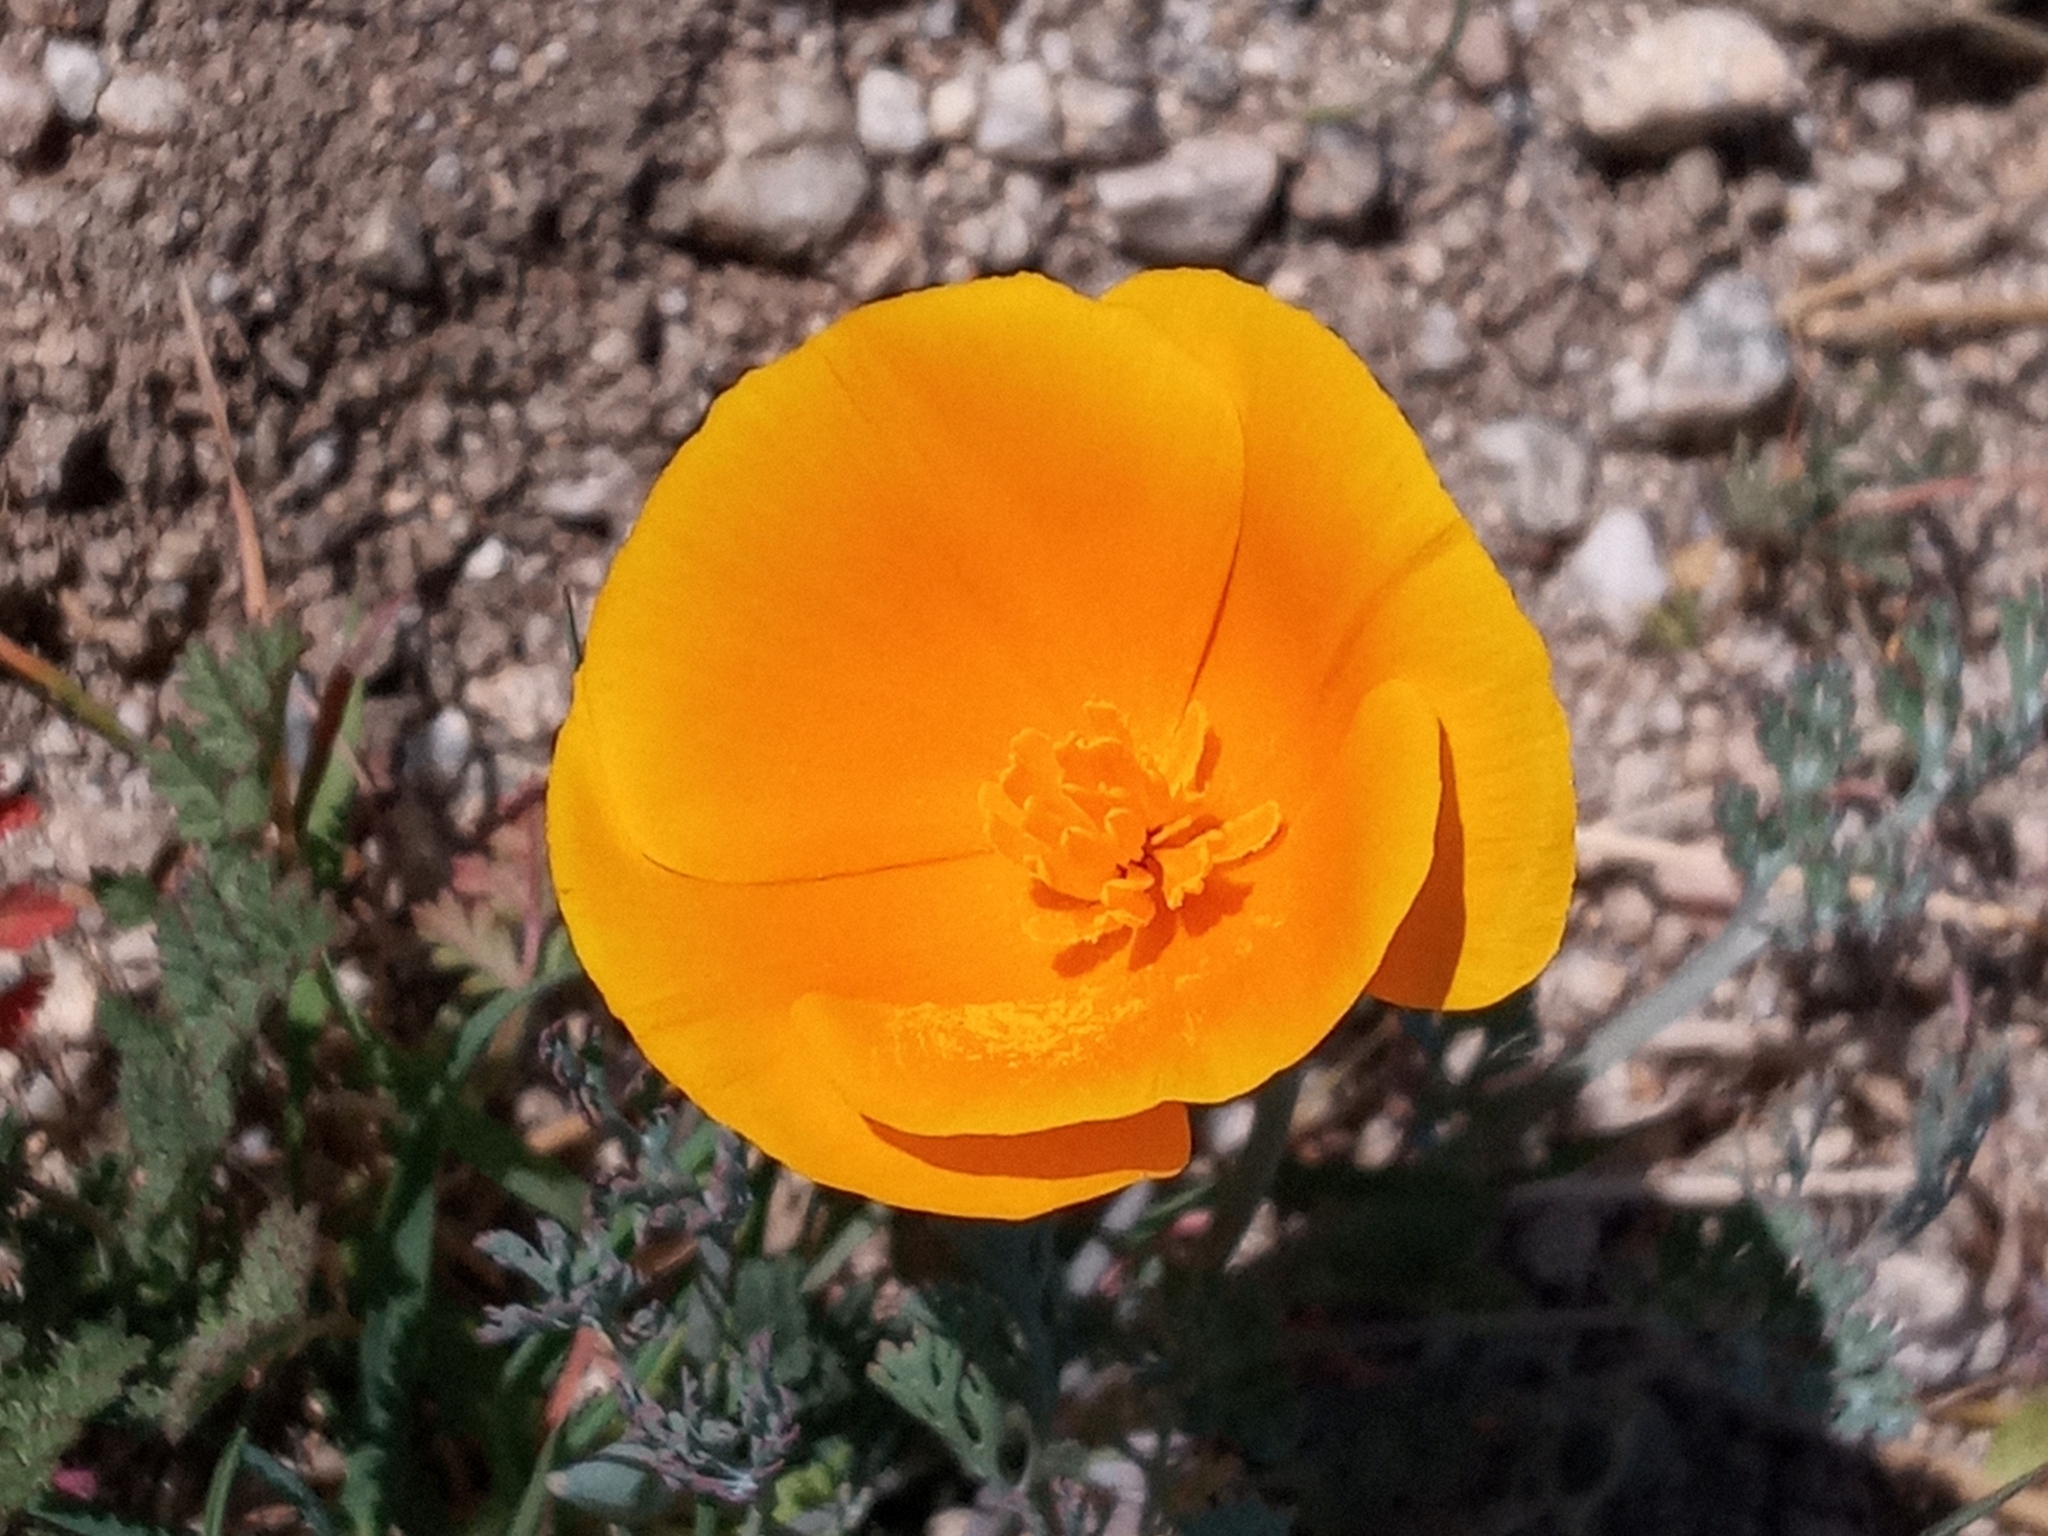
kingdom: Plantae
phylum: Tracheophyta
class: Magnoliopsida
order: Ranunculales
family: Papaveraceae
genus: Eschscholzia
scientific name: Eschscholzia californica
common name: California poppy
